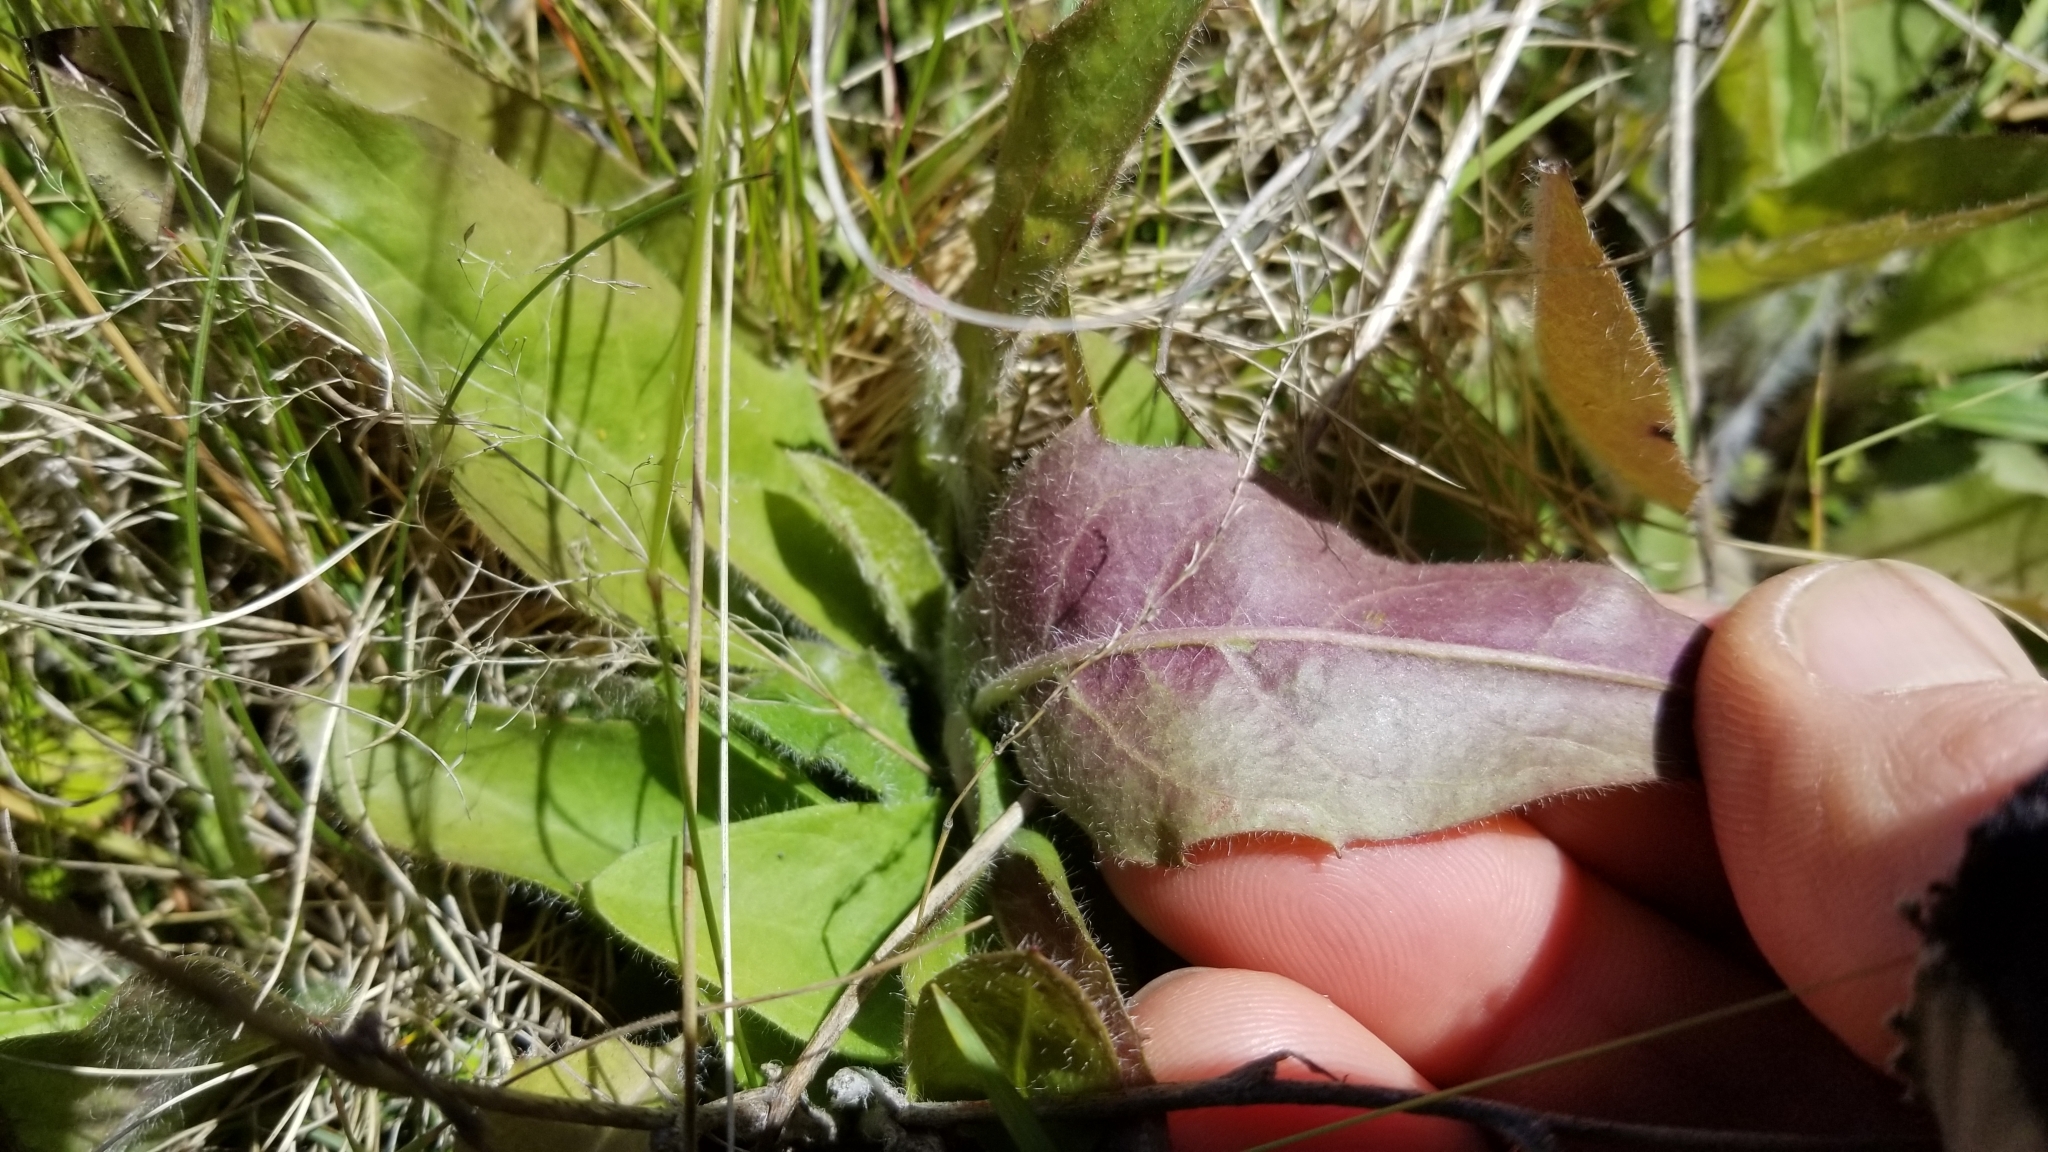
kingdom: Plantae
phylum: Tracheophyta
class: Magnoliopsida
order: Asterales
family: Asteraceae
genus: Hieracium
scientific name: Hieracium lepidulum
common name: Irregular-toothed hawkweed
